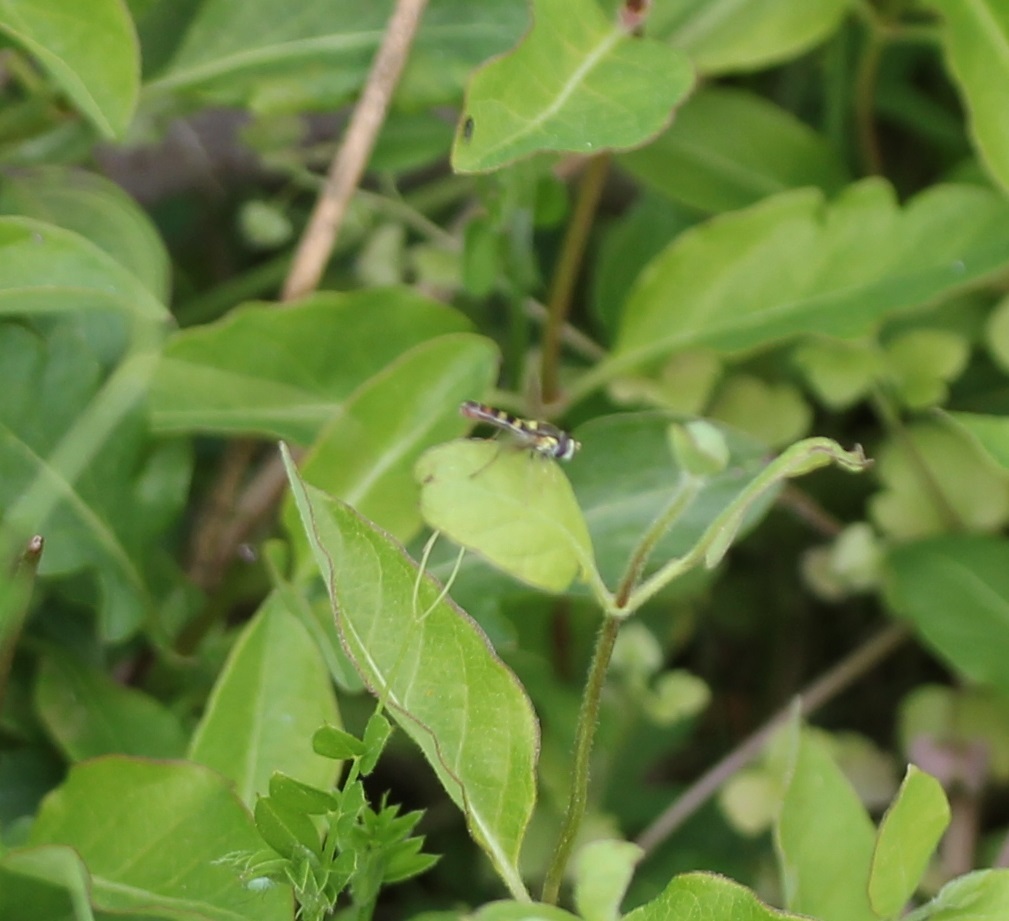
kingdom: Animalia
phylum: Arthropoda
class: Insecta
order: Diptera
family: Syrphidae
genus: Sphaerophoria
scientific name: Sphaerophoria contigua
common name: Tufted globetail
